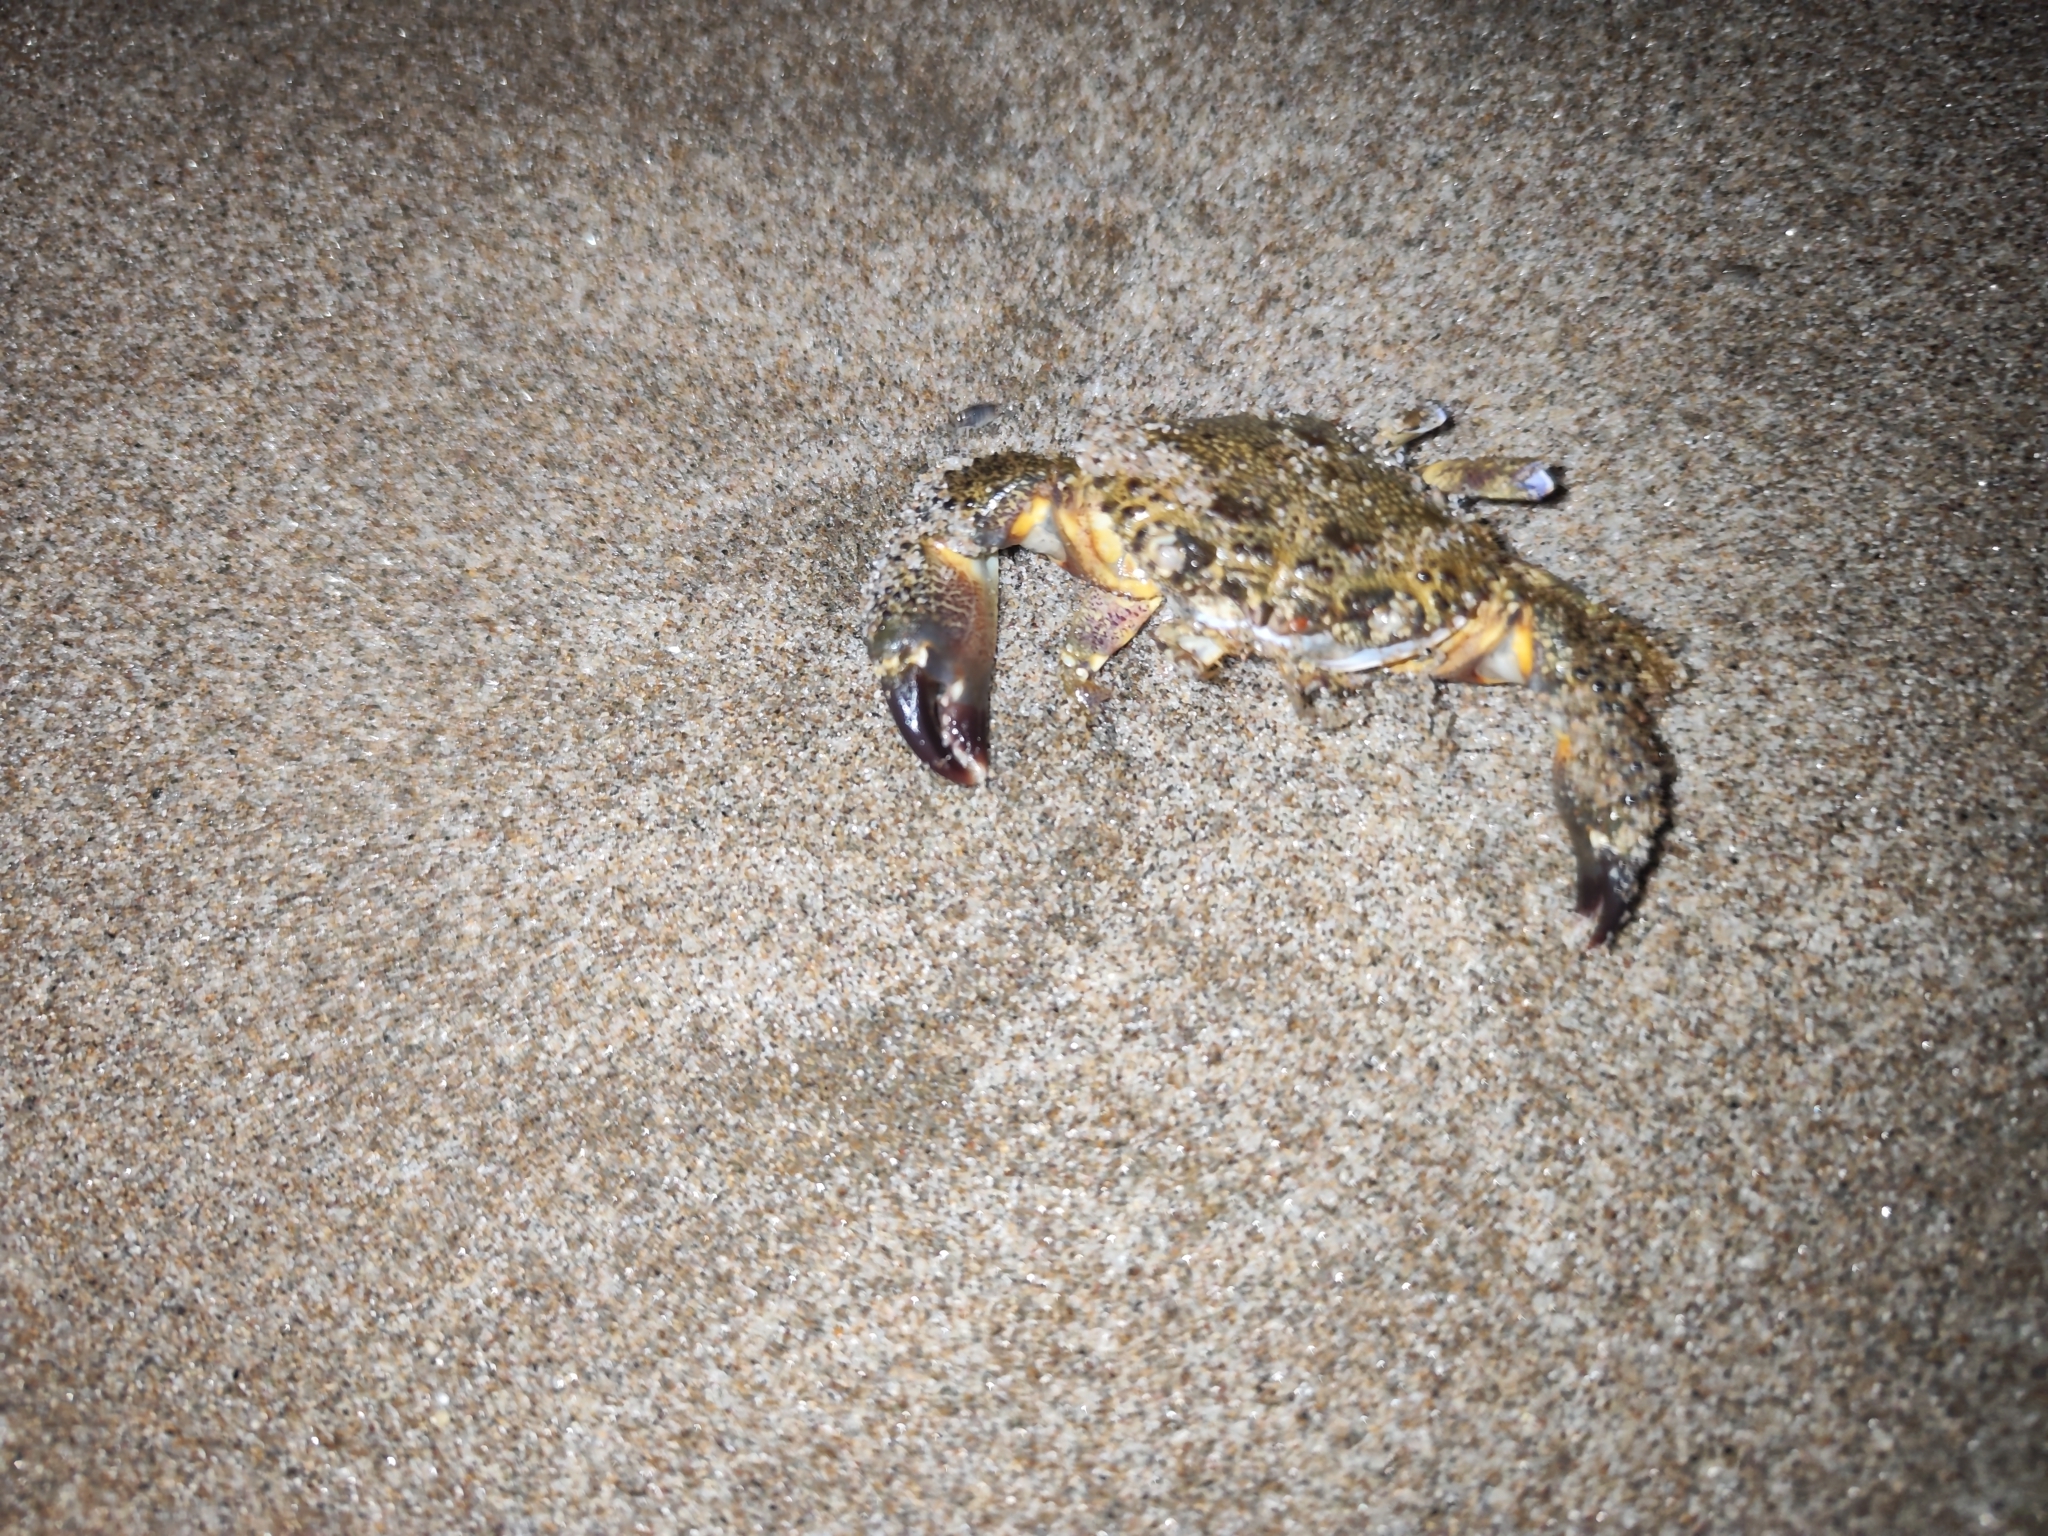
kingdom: Animalia
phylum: Arthropoda
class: Malacostraca
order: Decapoda
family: Eriphiidae
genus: Eriphia
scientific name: Eriphia verrucosa
